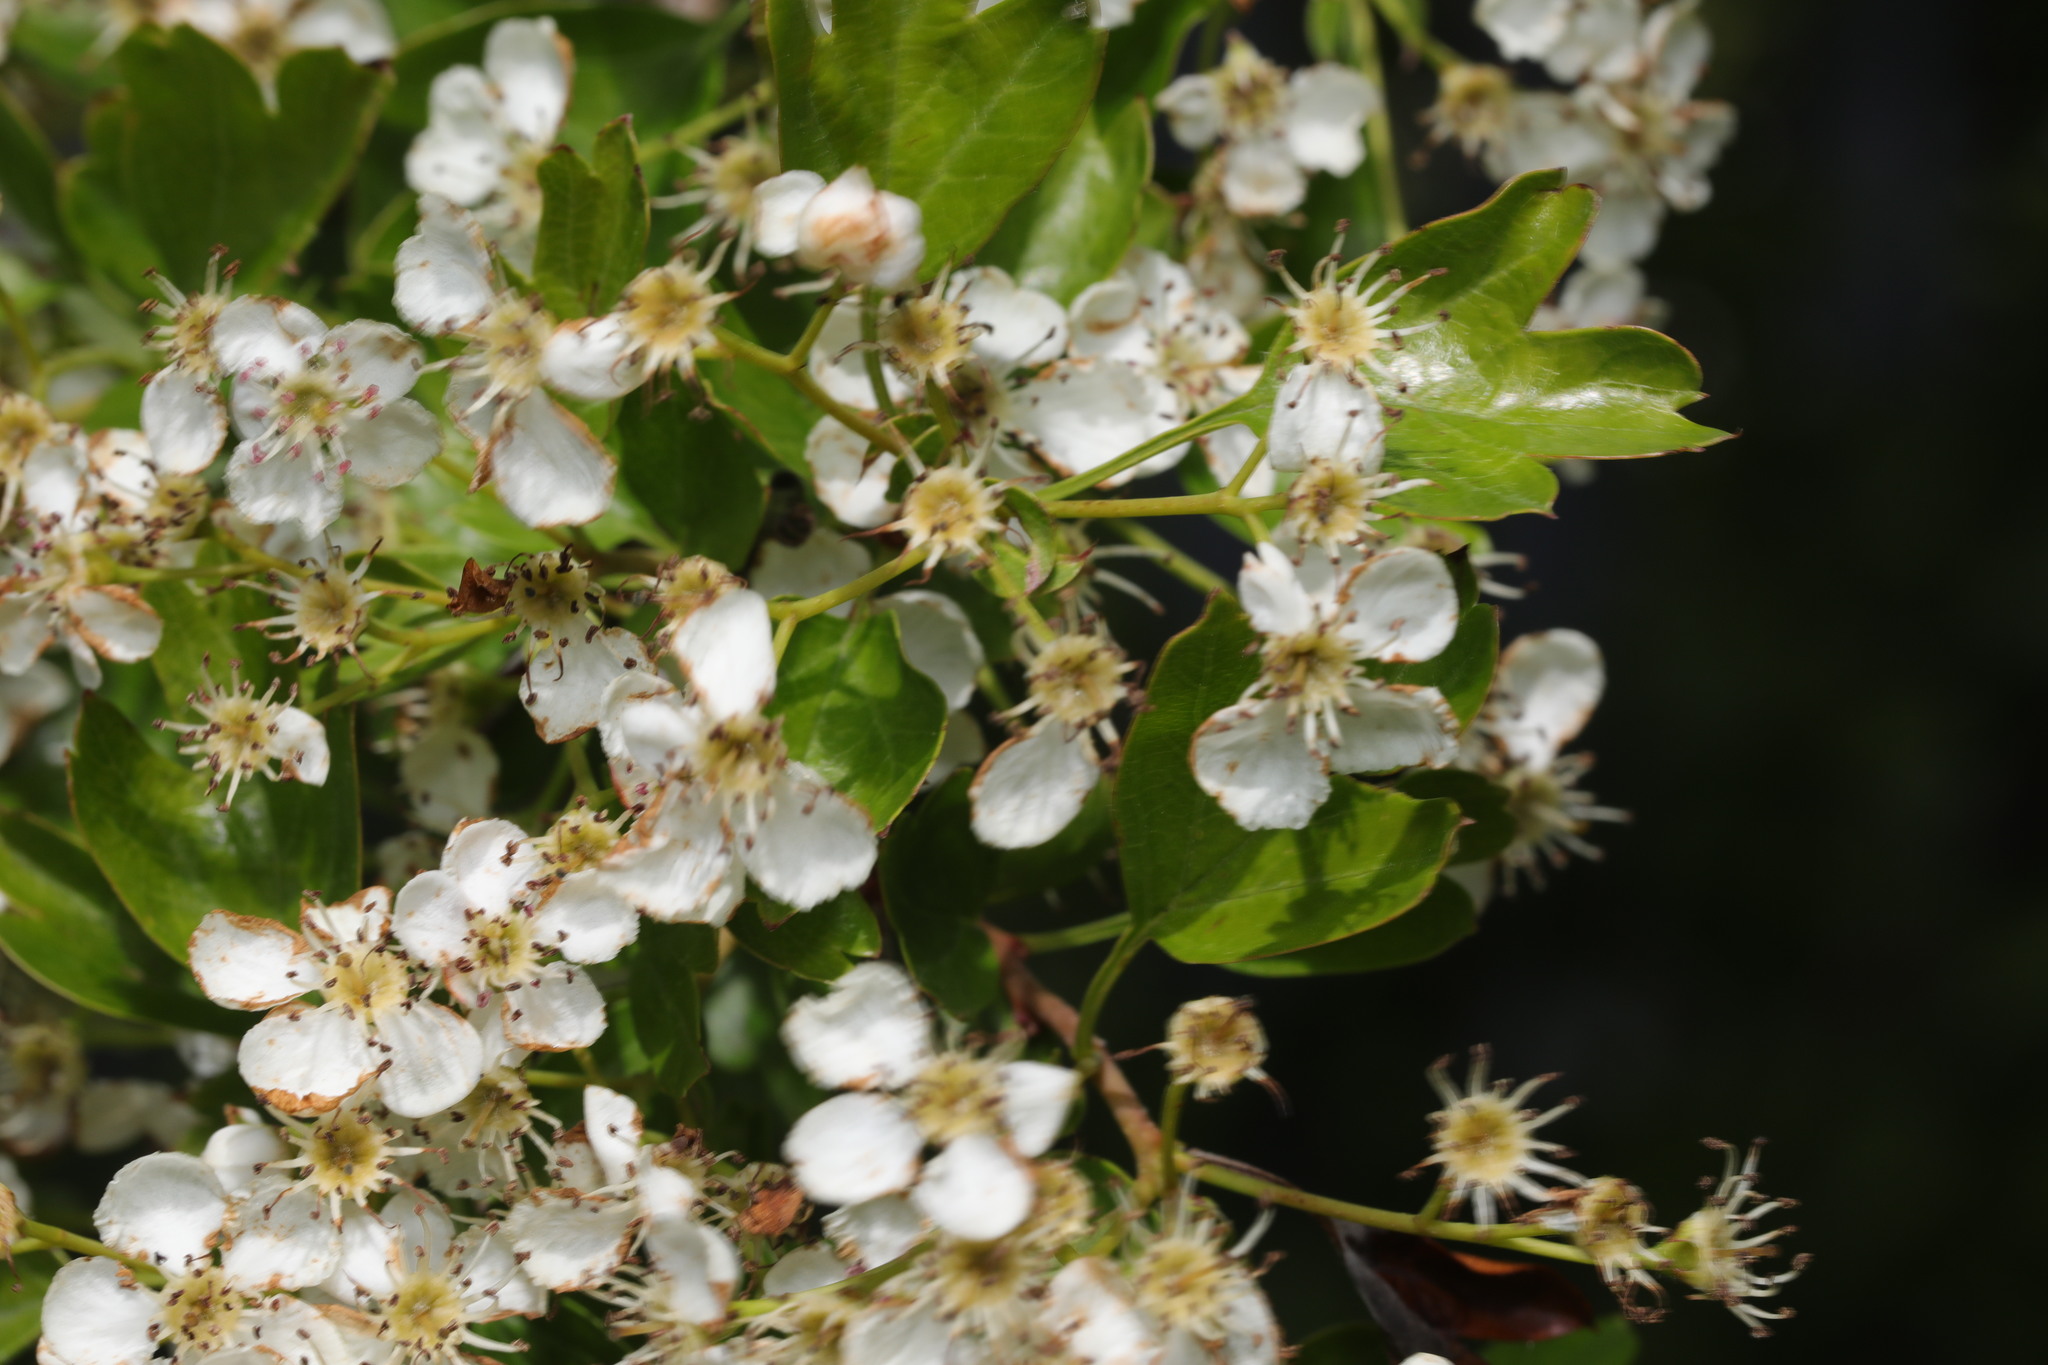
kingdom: Plantae
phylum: Tracheophyta
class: Magnoliopsida
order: Rosales
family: Rosaceae
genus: Crataegus
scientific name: Crataegus monogyna
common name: Hawthorn
